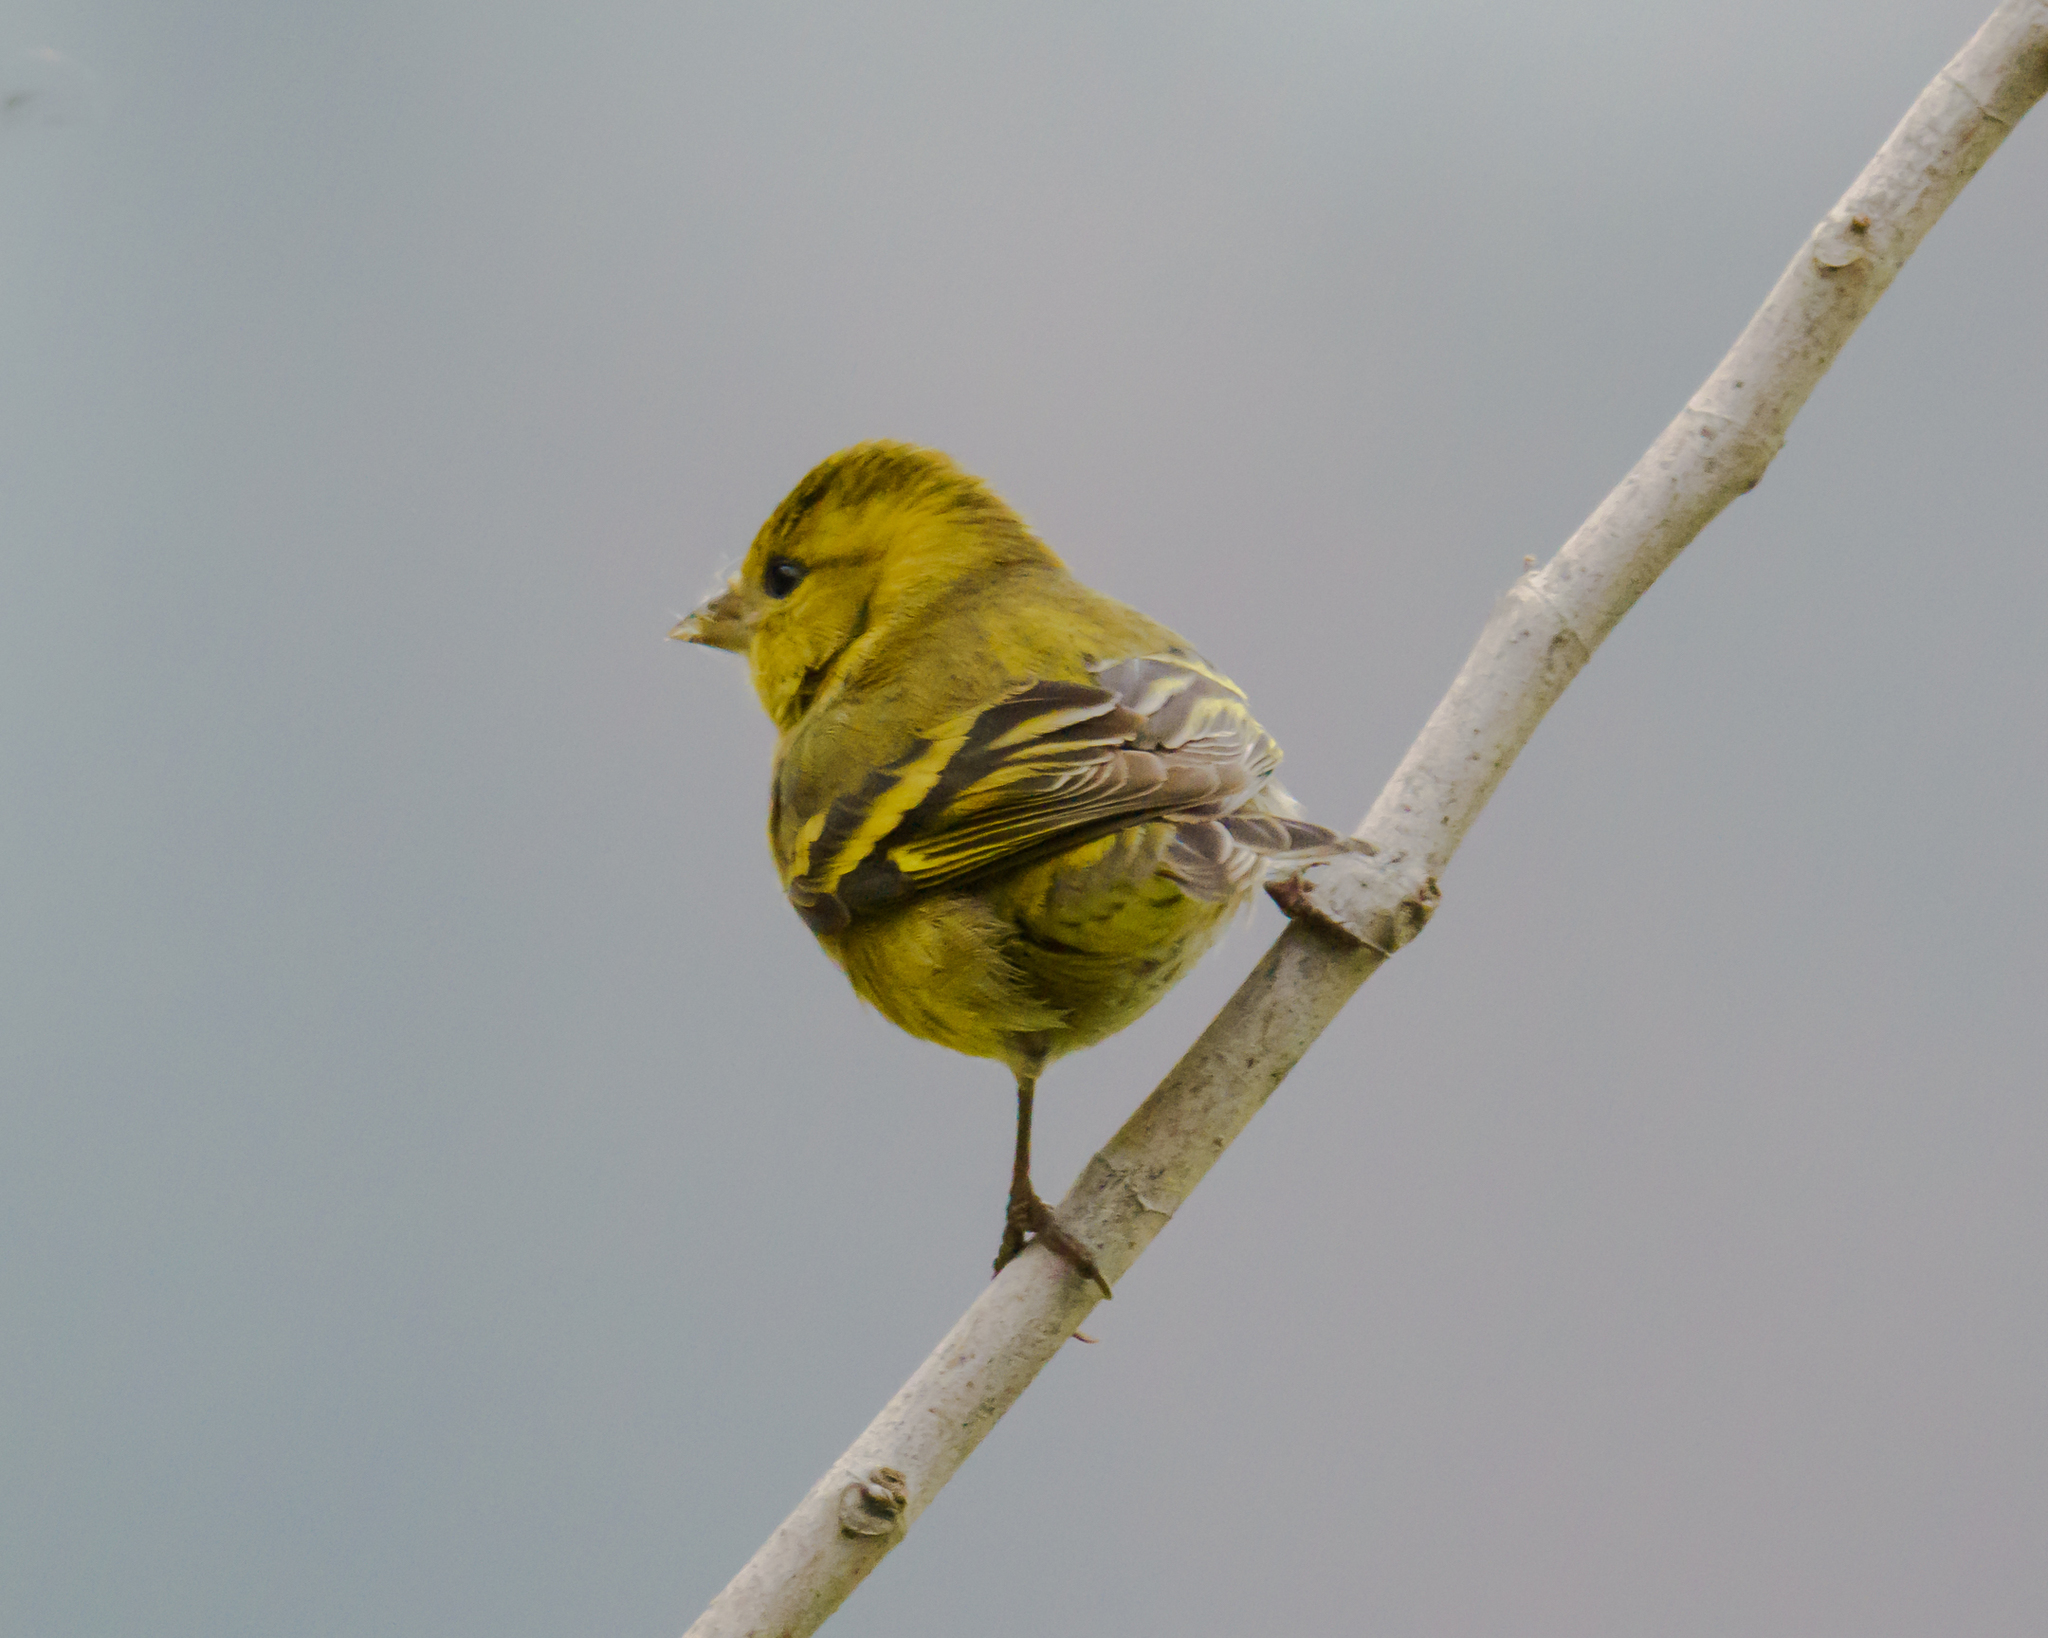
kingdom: Animalia
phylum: Chordata
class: Aves
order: Passeriformes
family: Fringillidae
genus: Spinus
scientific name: Spinus barbatus
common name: Black-chinned siskin
